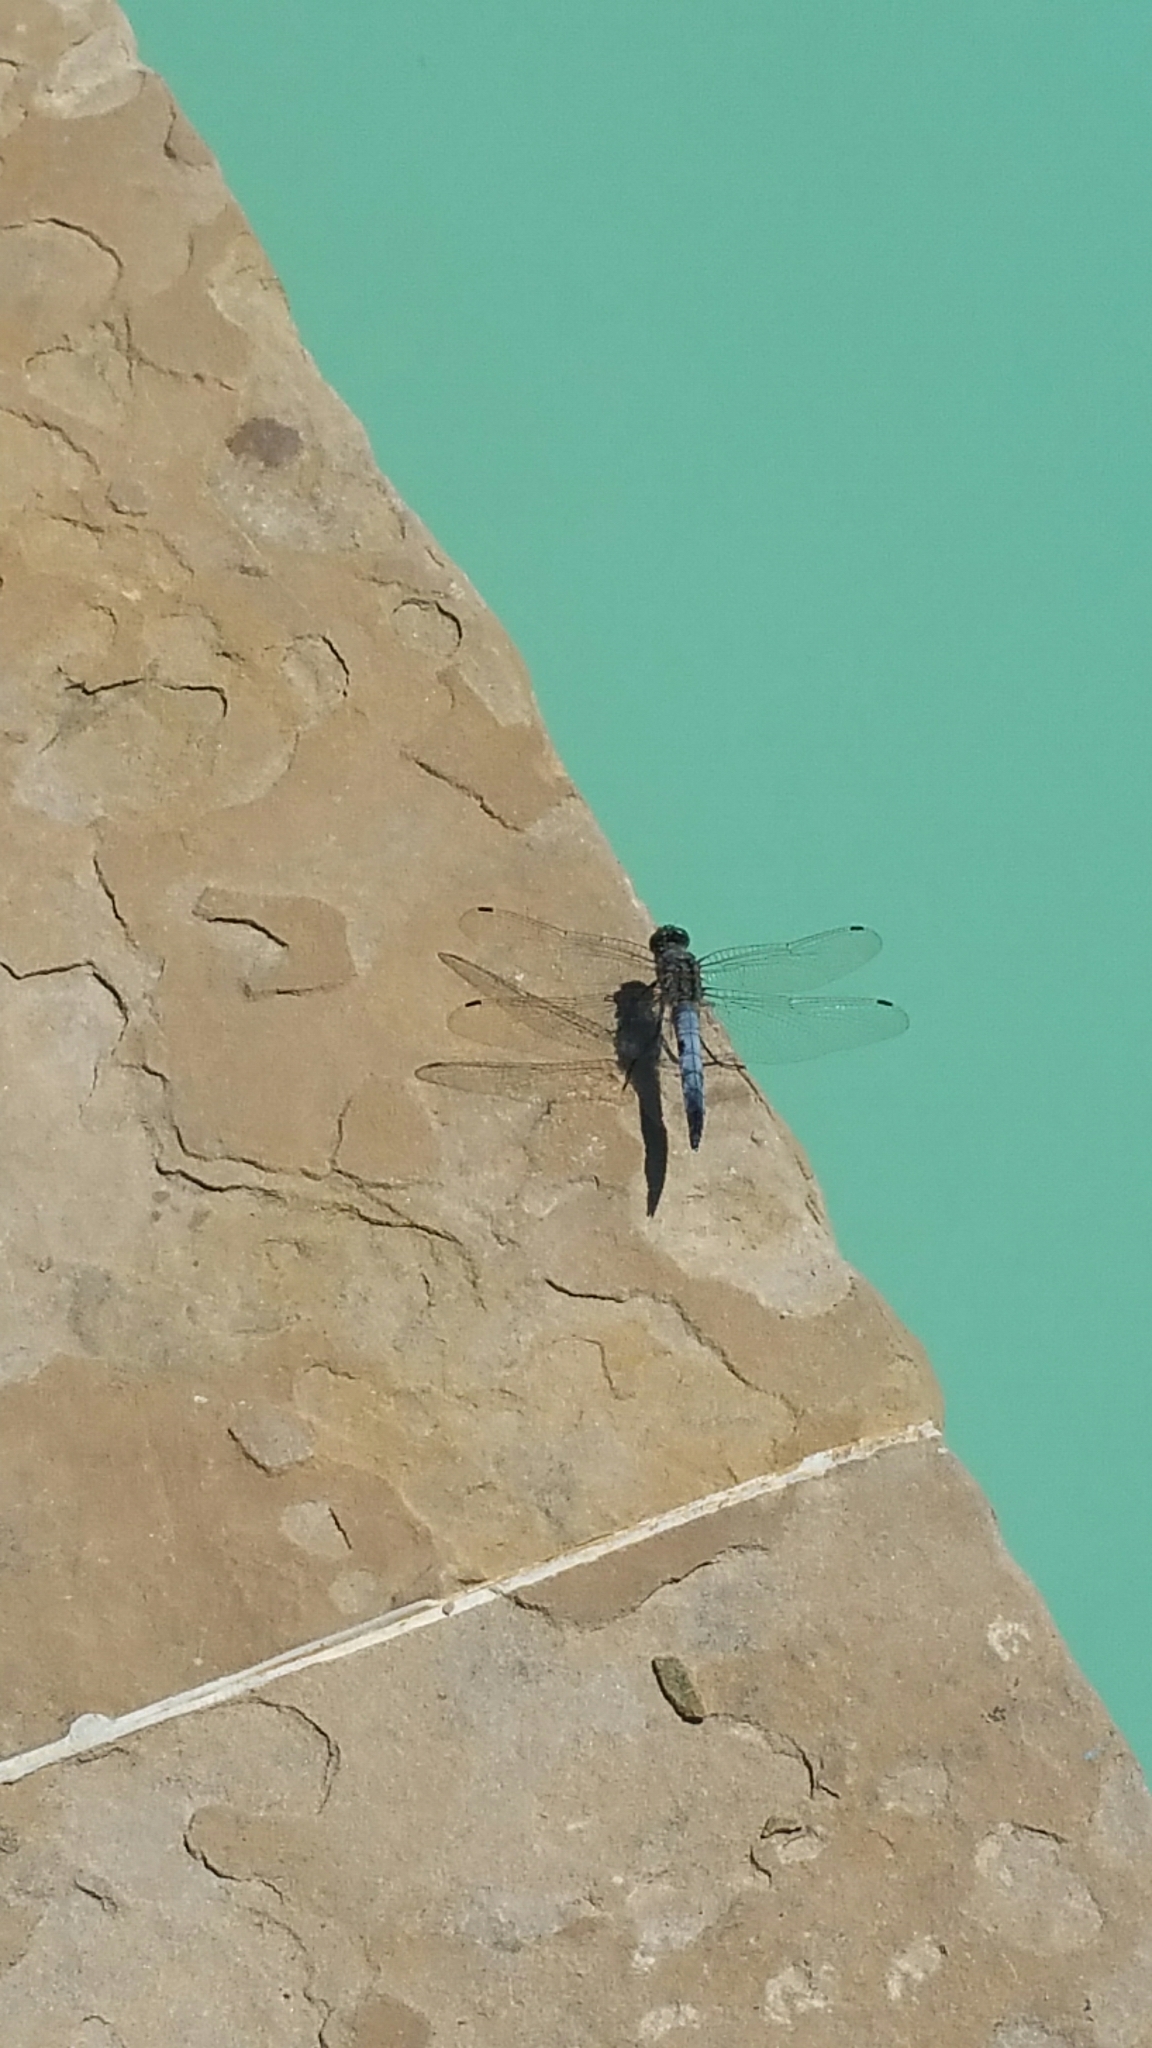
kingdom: Animalia
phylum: Arthropoda
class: Insecta
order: Odonata
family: Libellulidae
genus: Orthetrum
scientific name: Orthetrum cancellatum
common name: Black-tailed skimmer
